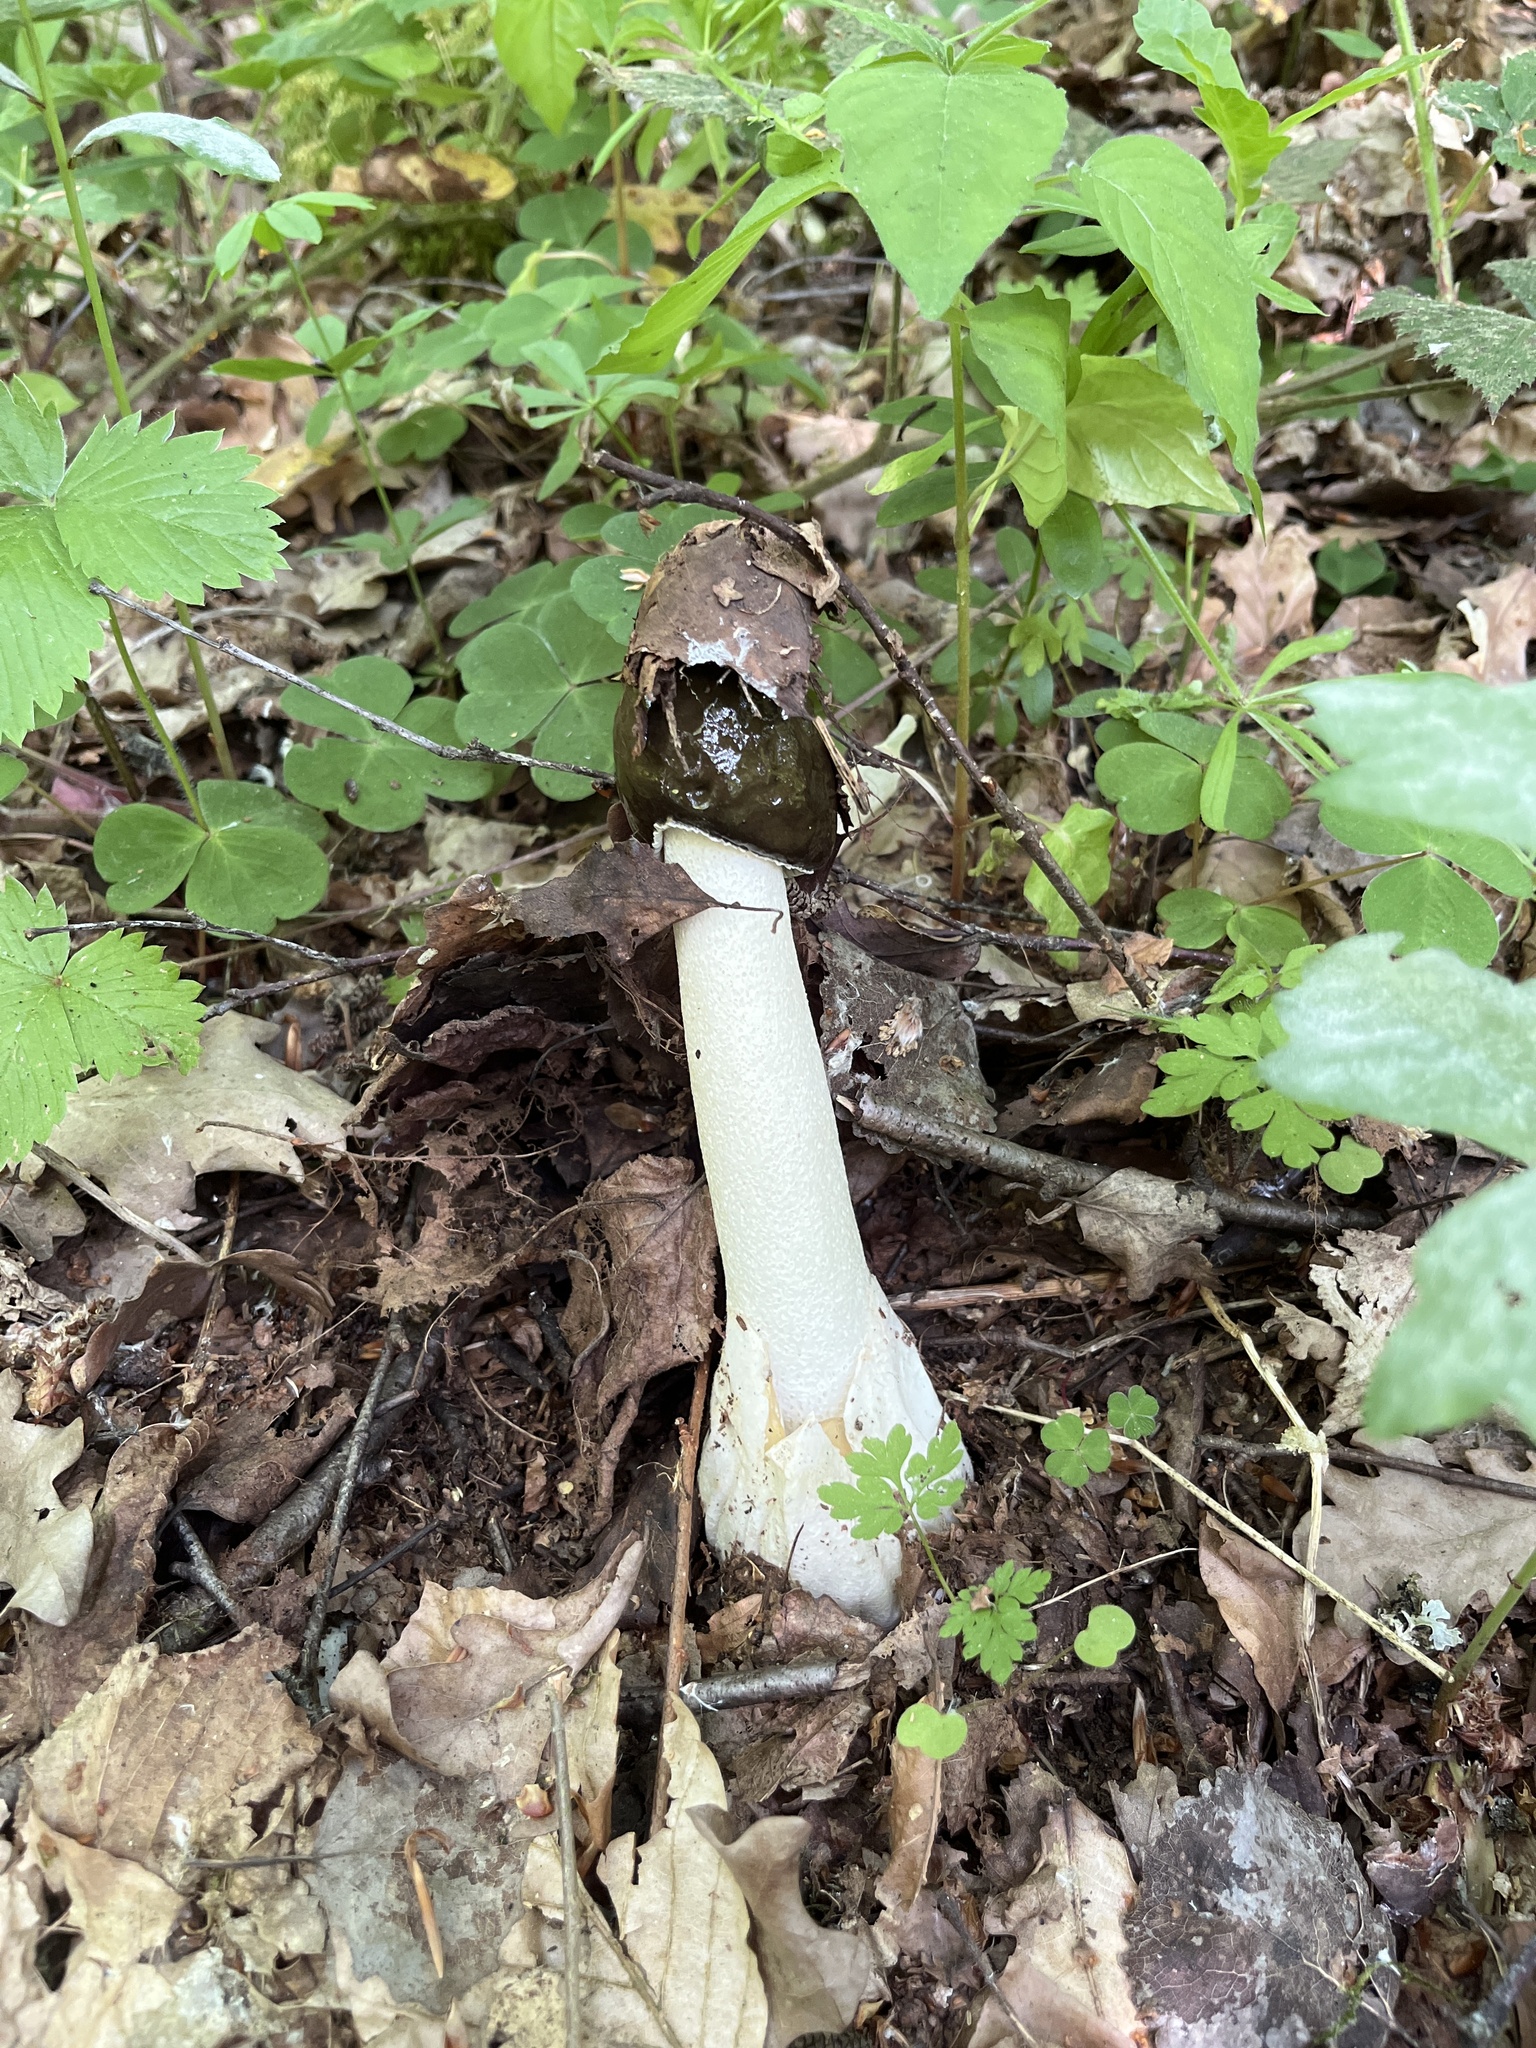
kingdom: Fungi
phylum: Basidiomycota
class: Agaricomycetes
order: Phallales
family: Phallaceae
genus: Phallus
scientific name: Phallus impudicus
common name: Common stinkhorn
